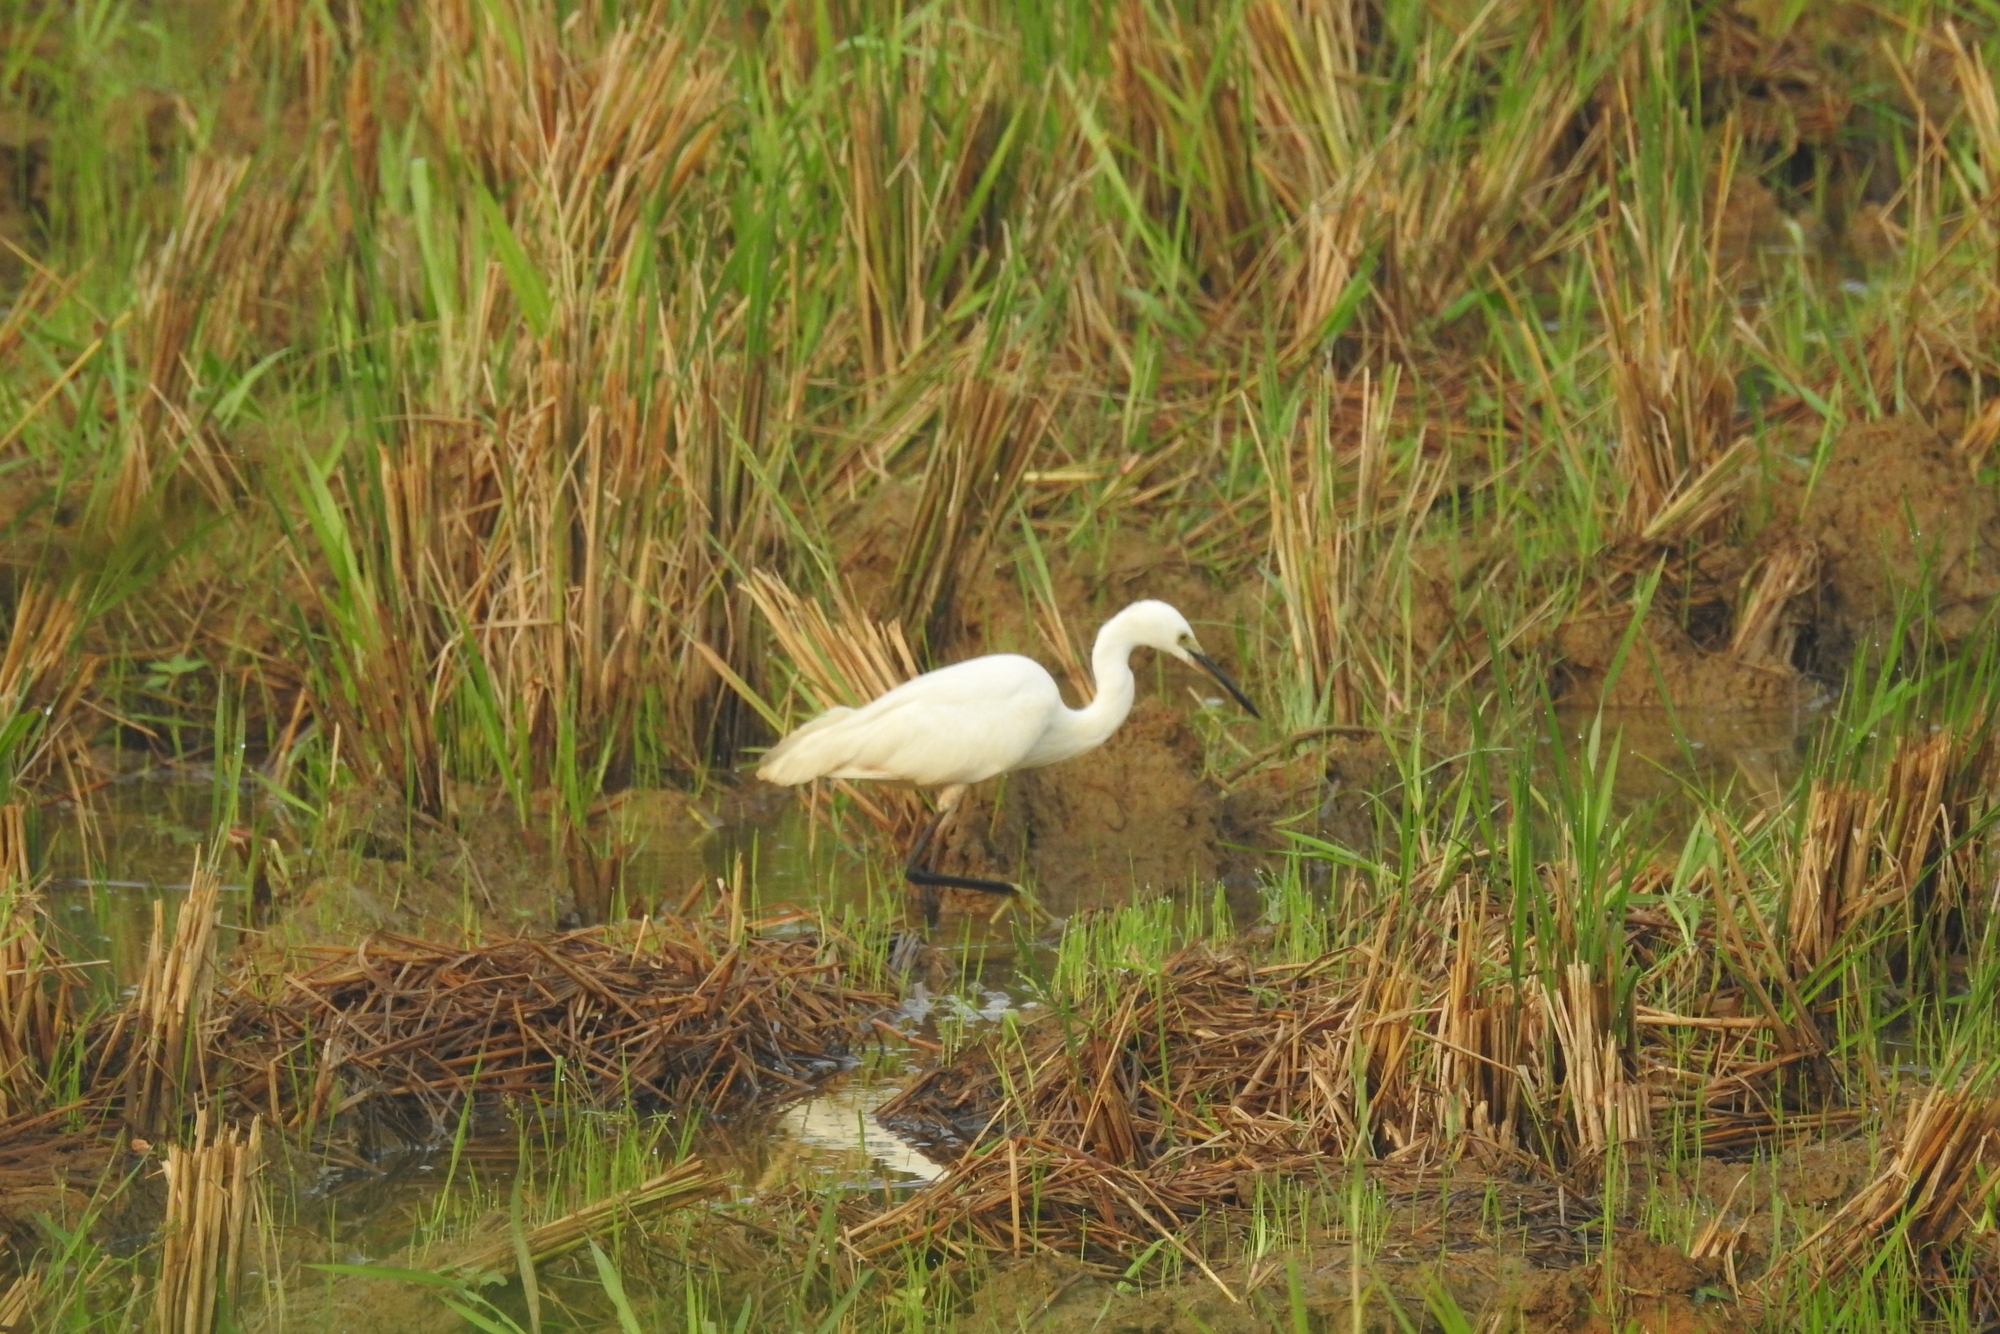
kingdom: Animalia
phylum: Chordata
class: Aves
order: Pelecaniformes
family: Ardeidae
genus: Egretta
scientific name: Egretta garzetta
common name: Little egret
